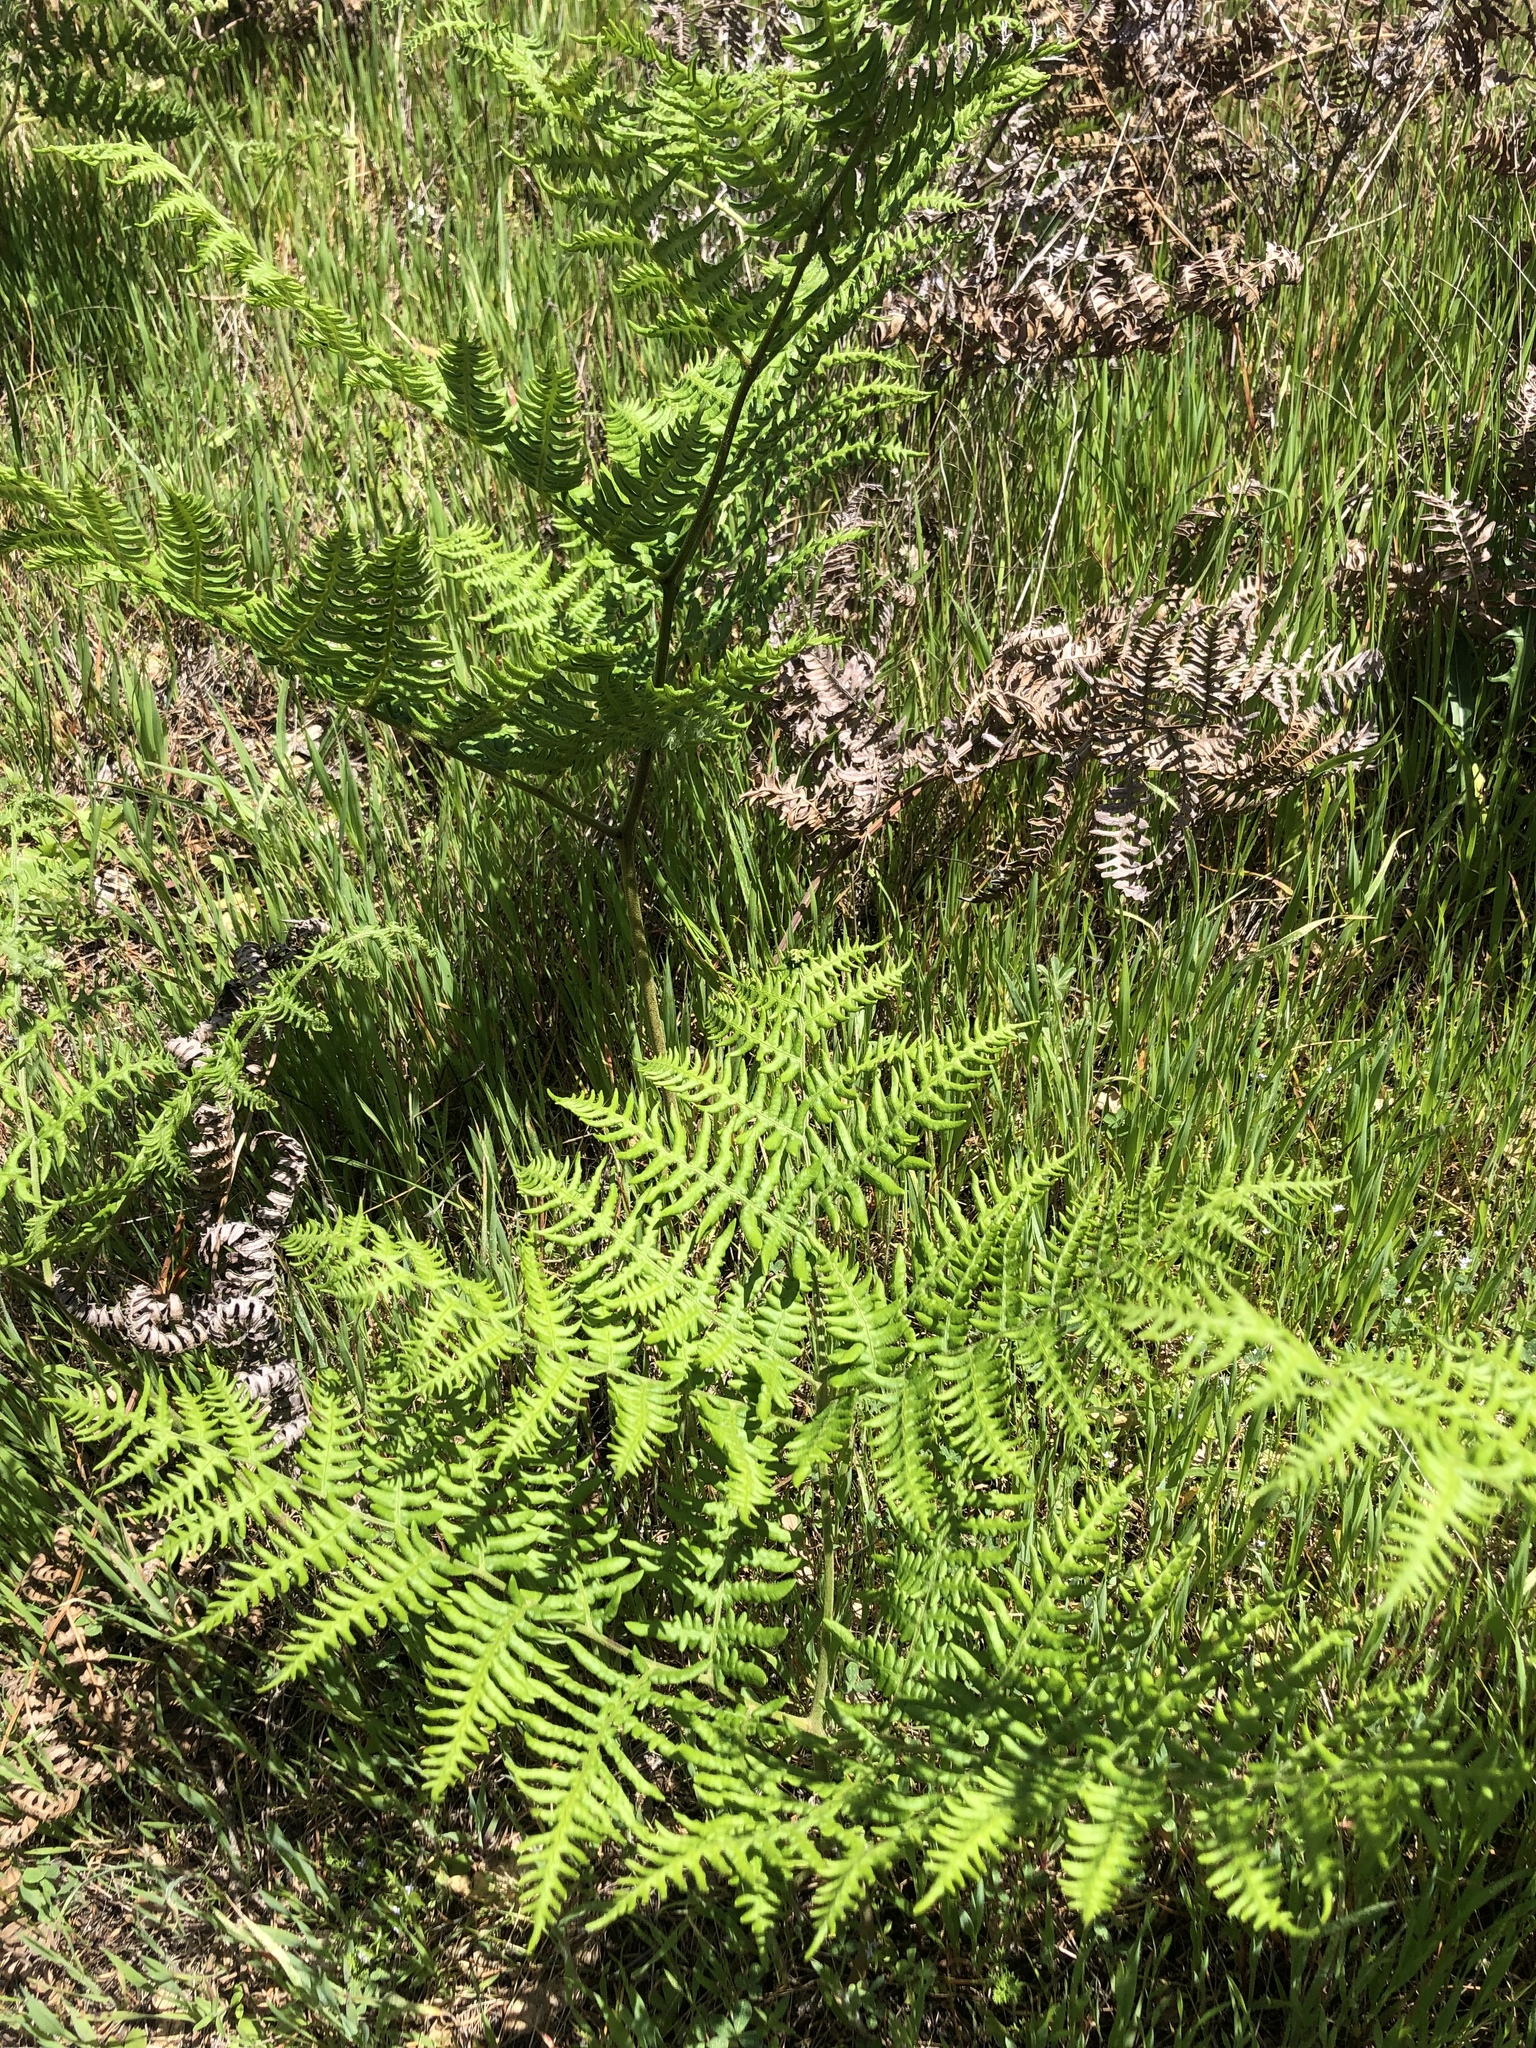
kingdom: Plantae
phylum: Tracheophyta
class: Polypodiopsida
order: Polypodiales
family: Dennstaedtiaceae
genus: Pteridium
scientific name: Pteridium aquilinum
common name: Bracken
